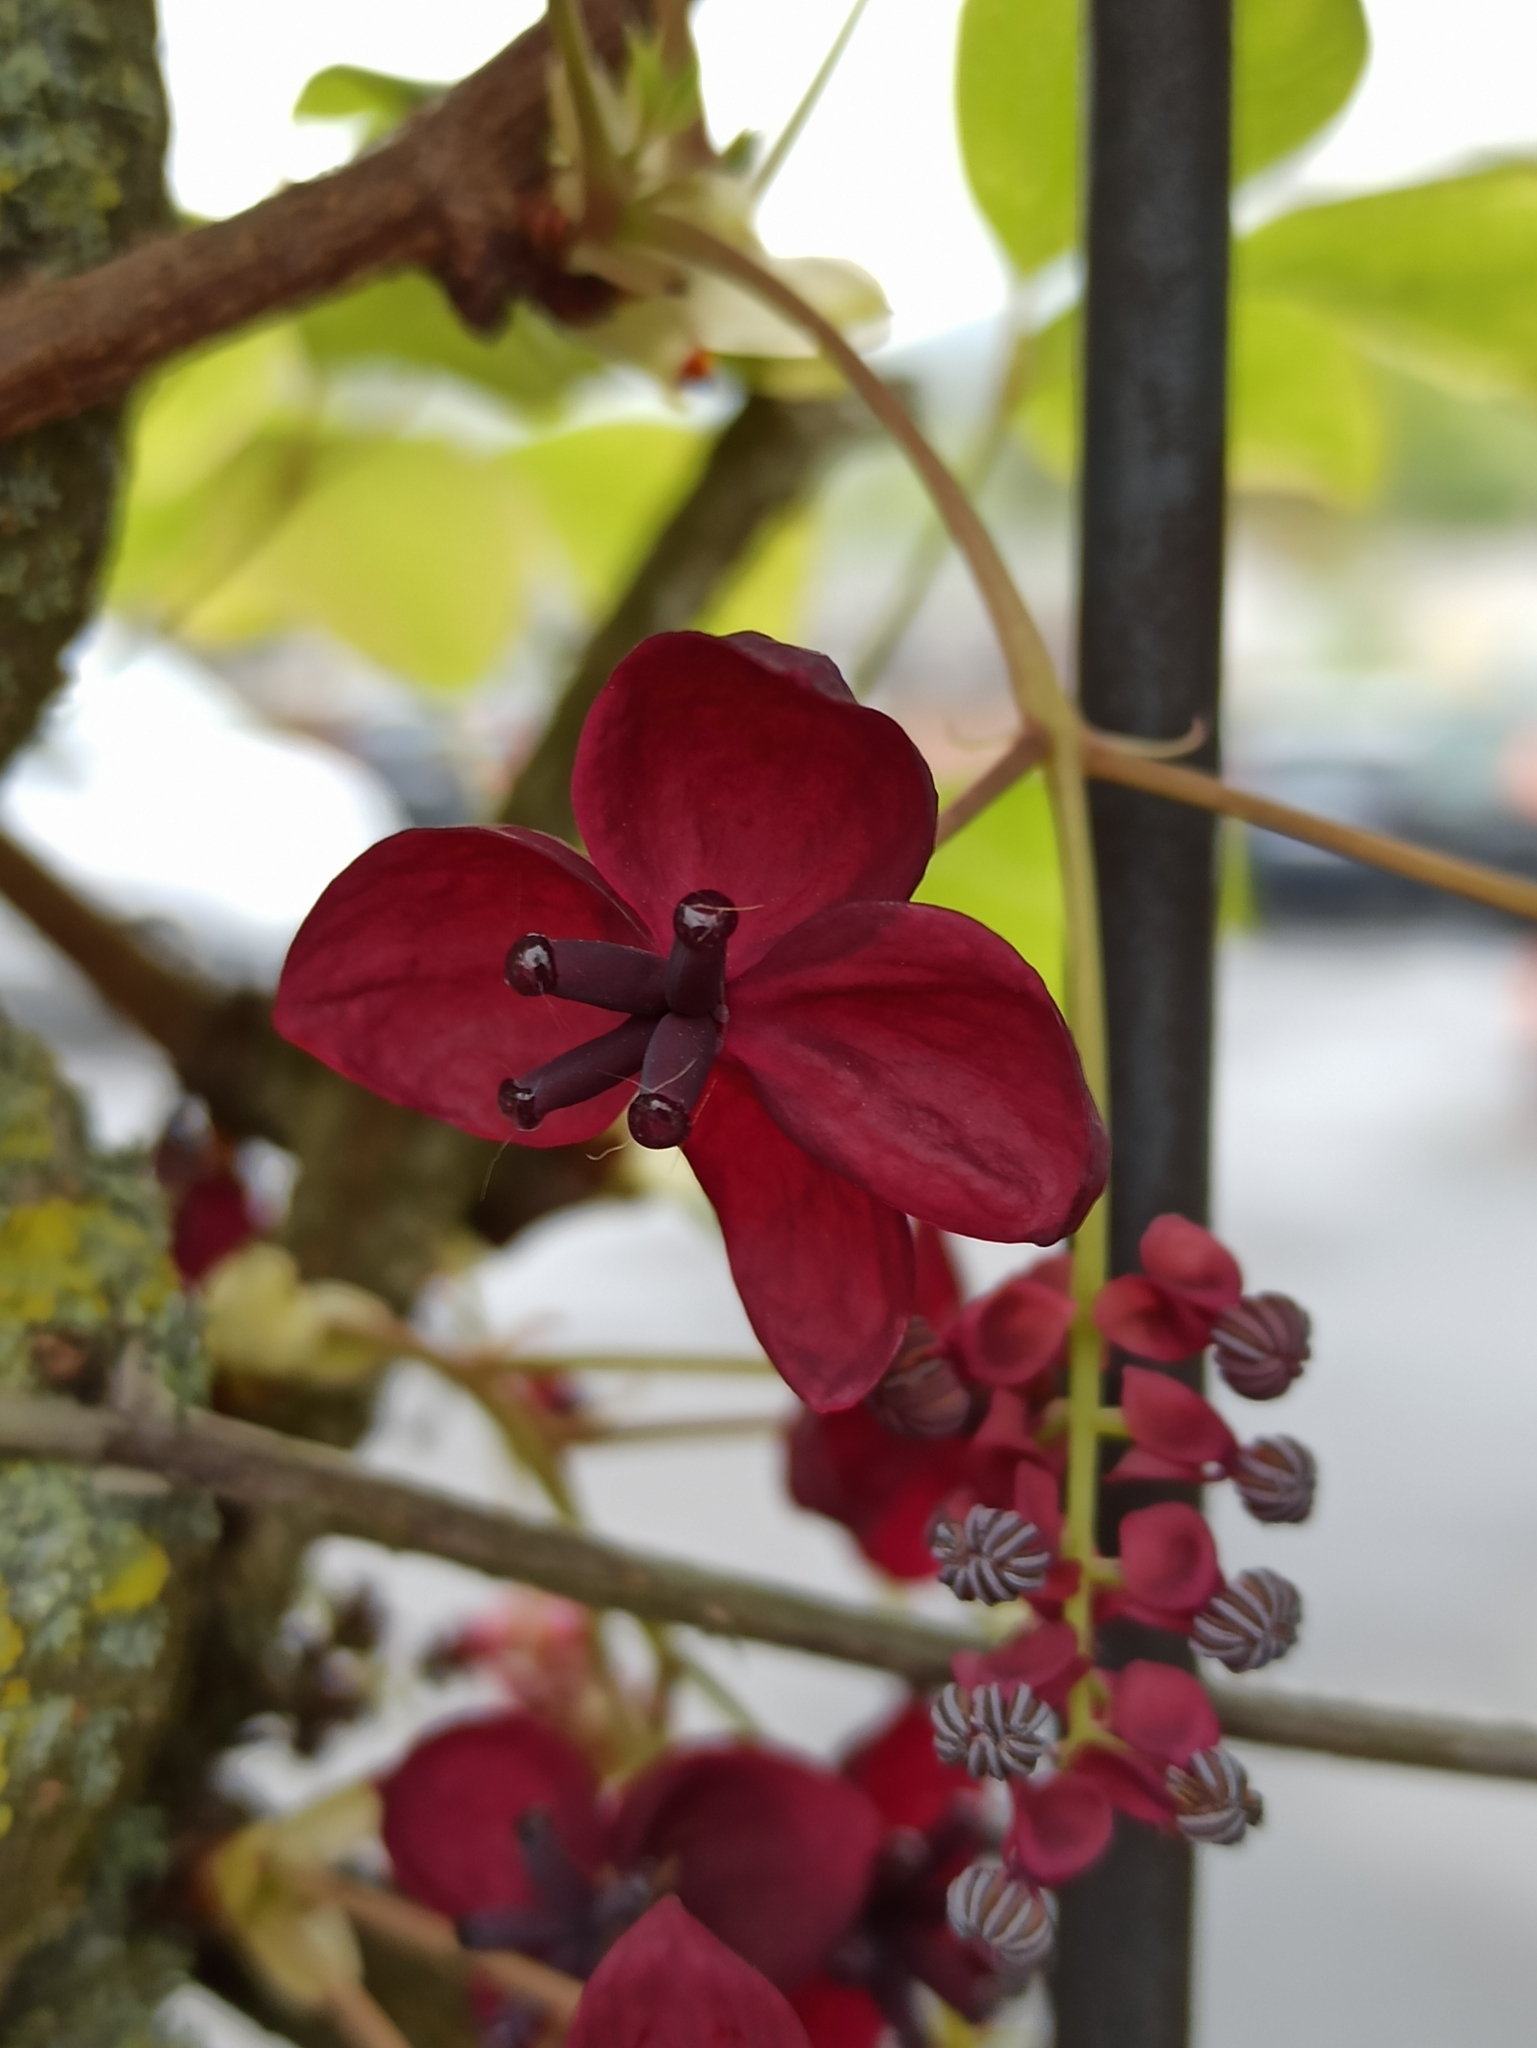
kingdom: Plantae
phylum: Tracheophyta
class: Magnoliopsida
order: Ranunculales
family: Lardizabalaceae
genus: Akebia
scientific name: Akebia quinata
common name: Five-leaf akebia
